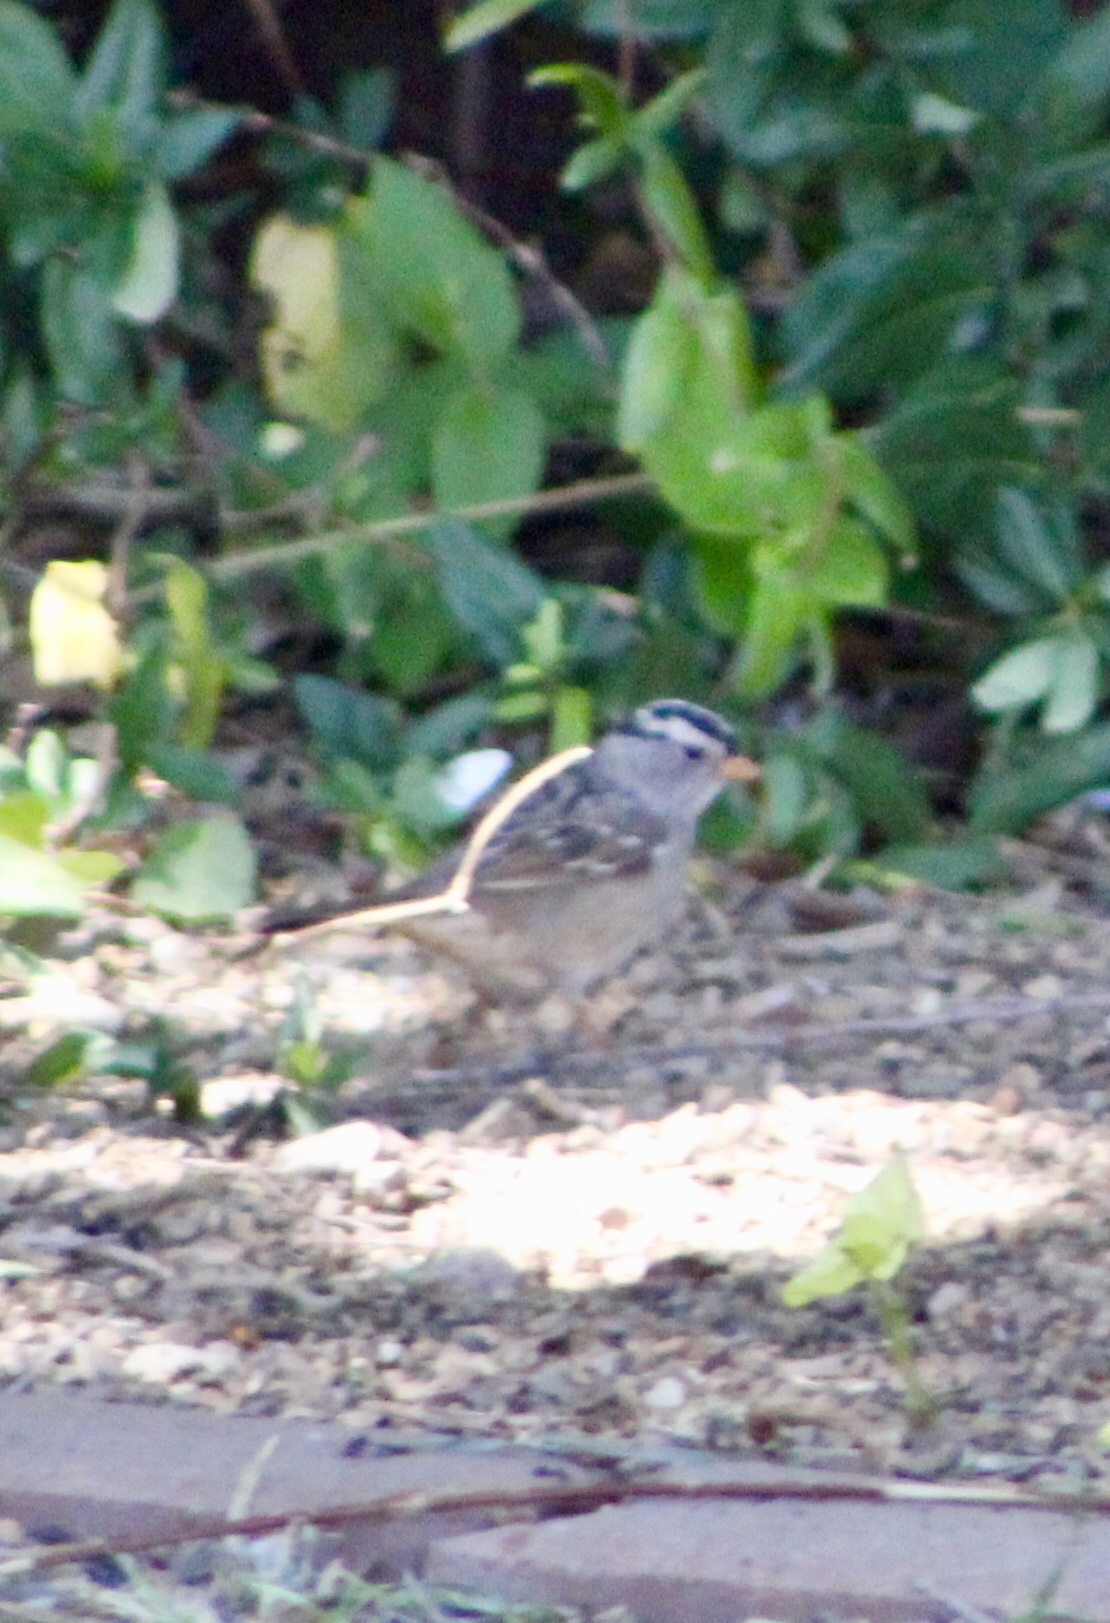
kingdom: Animalia
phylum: Chordata
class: Aves
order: Passeriformes
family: Passerellidae
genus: Zonotrichia
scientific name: Zonotrichia leucophrys
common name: White-crowned sparrow
